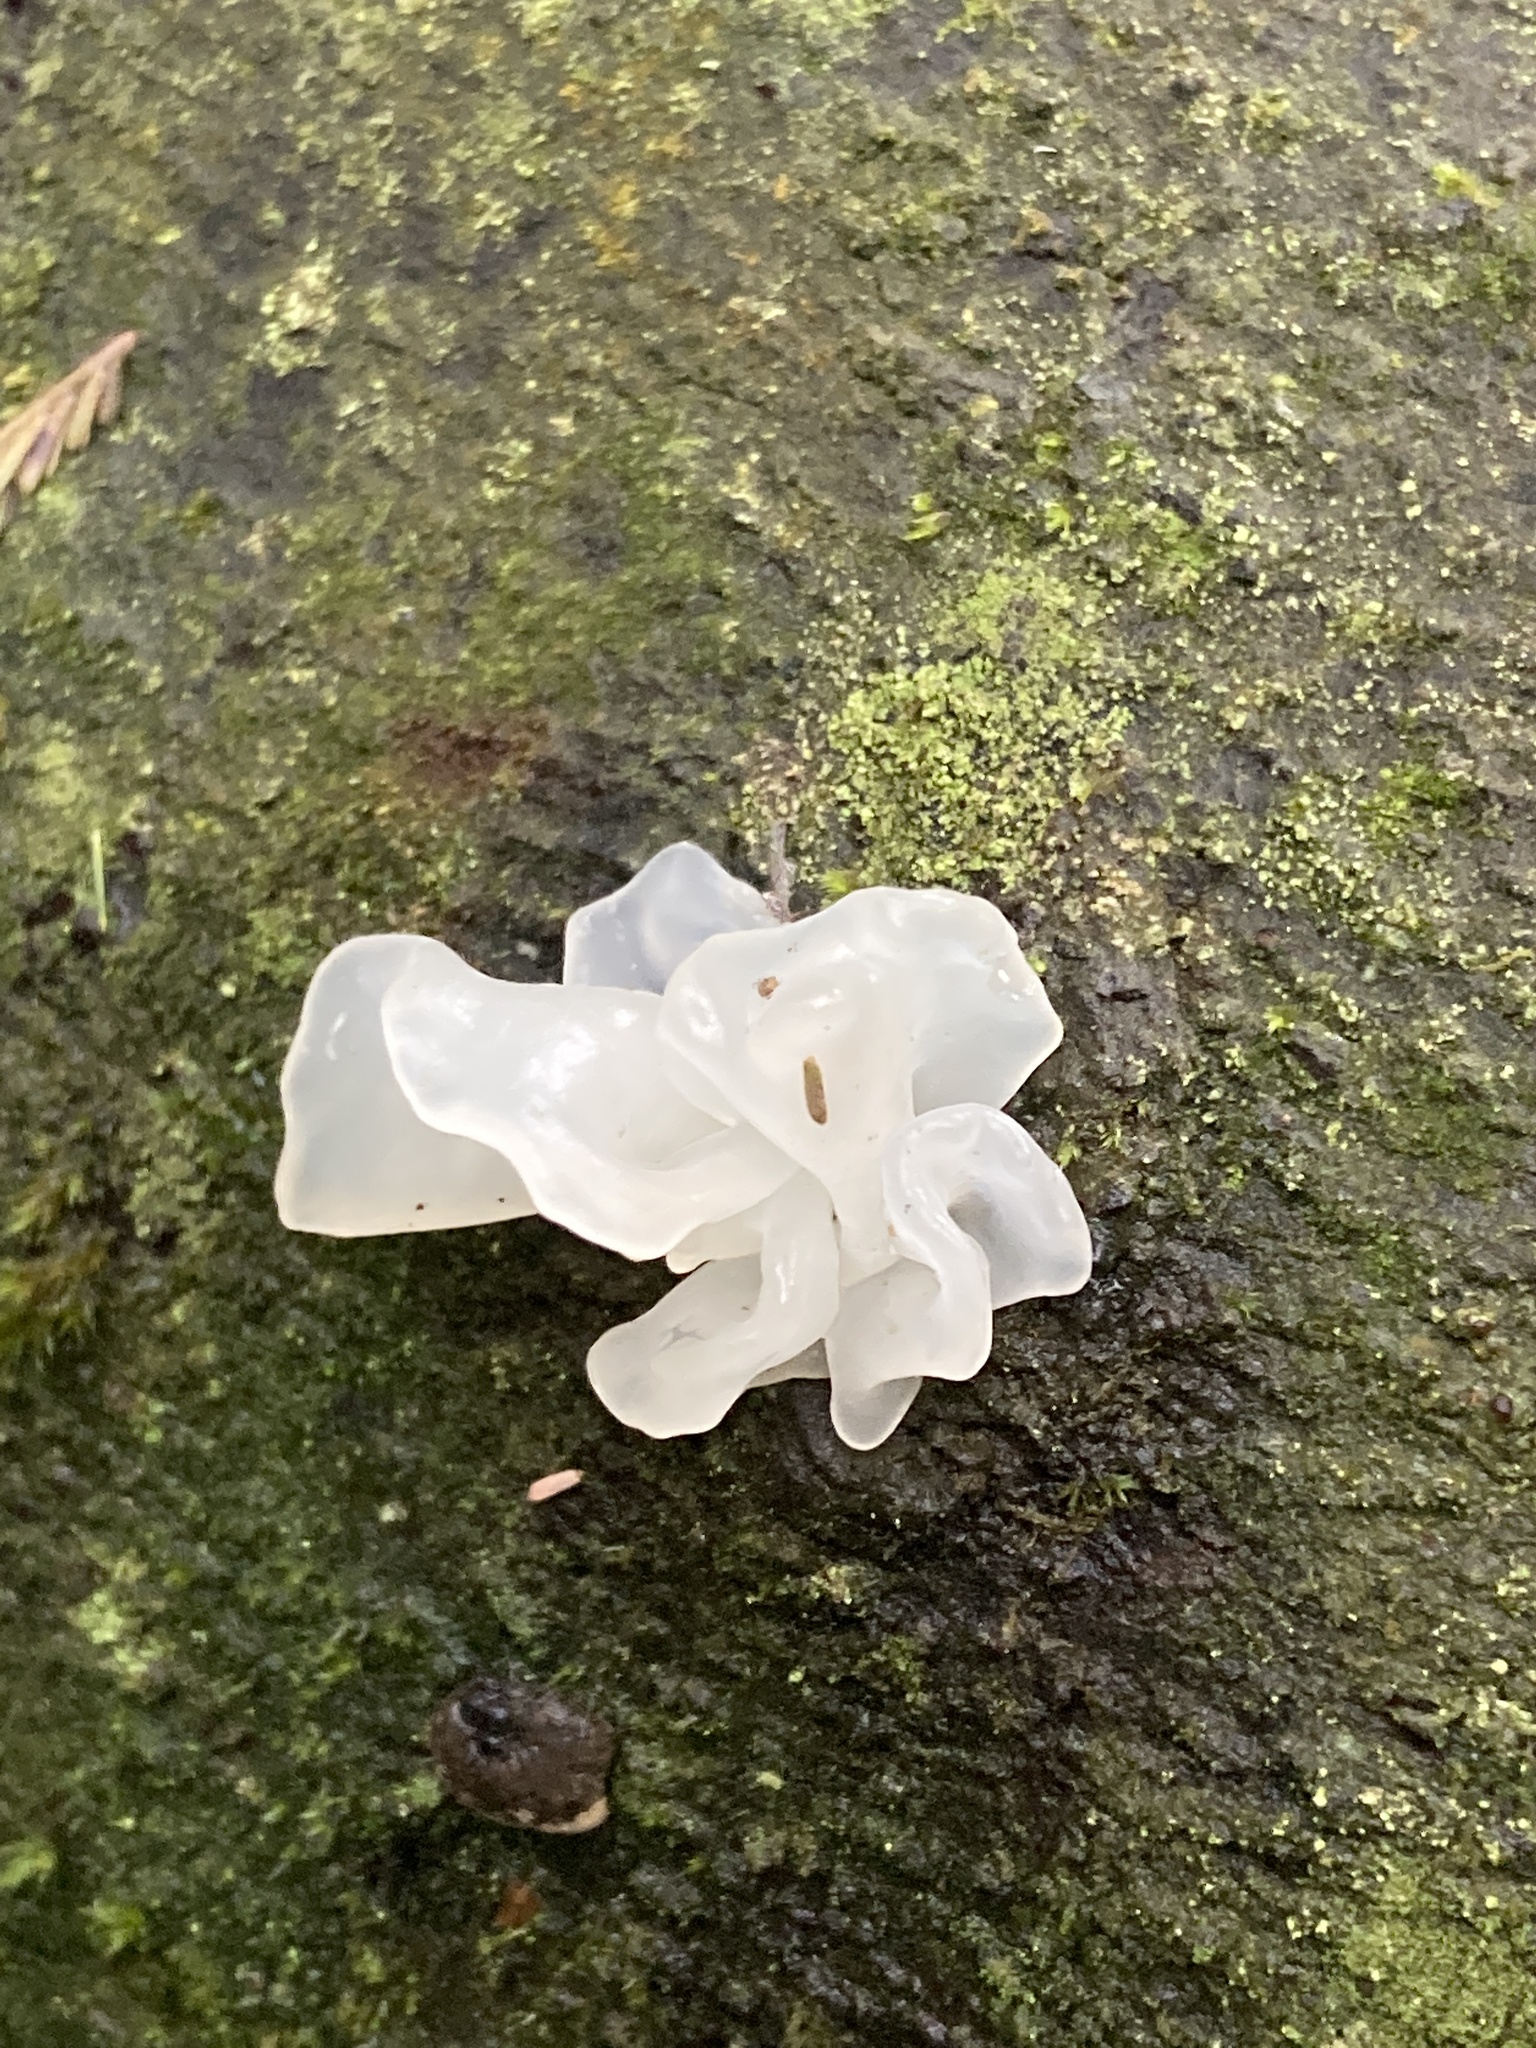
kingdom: Fungi
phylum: Basidiomycota
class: Tremellomycetes
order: Tremellales
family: Tremellaceae
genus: Tremella
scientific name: Tremella fuciformis
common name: Snow fungus
